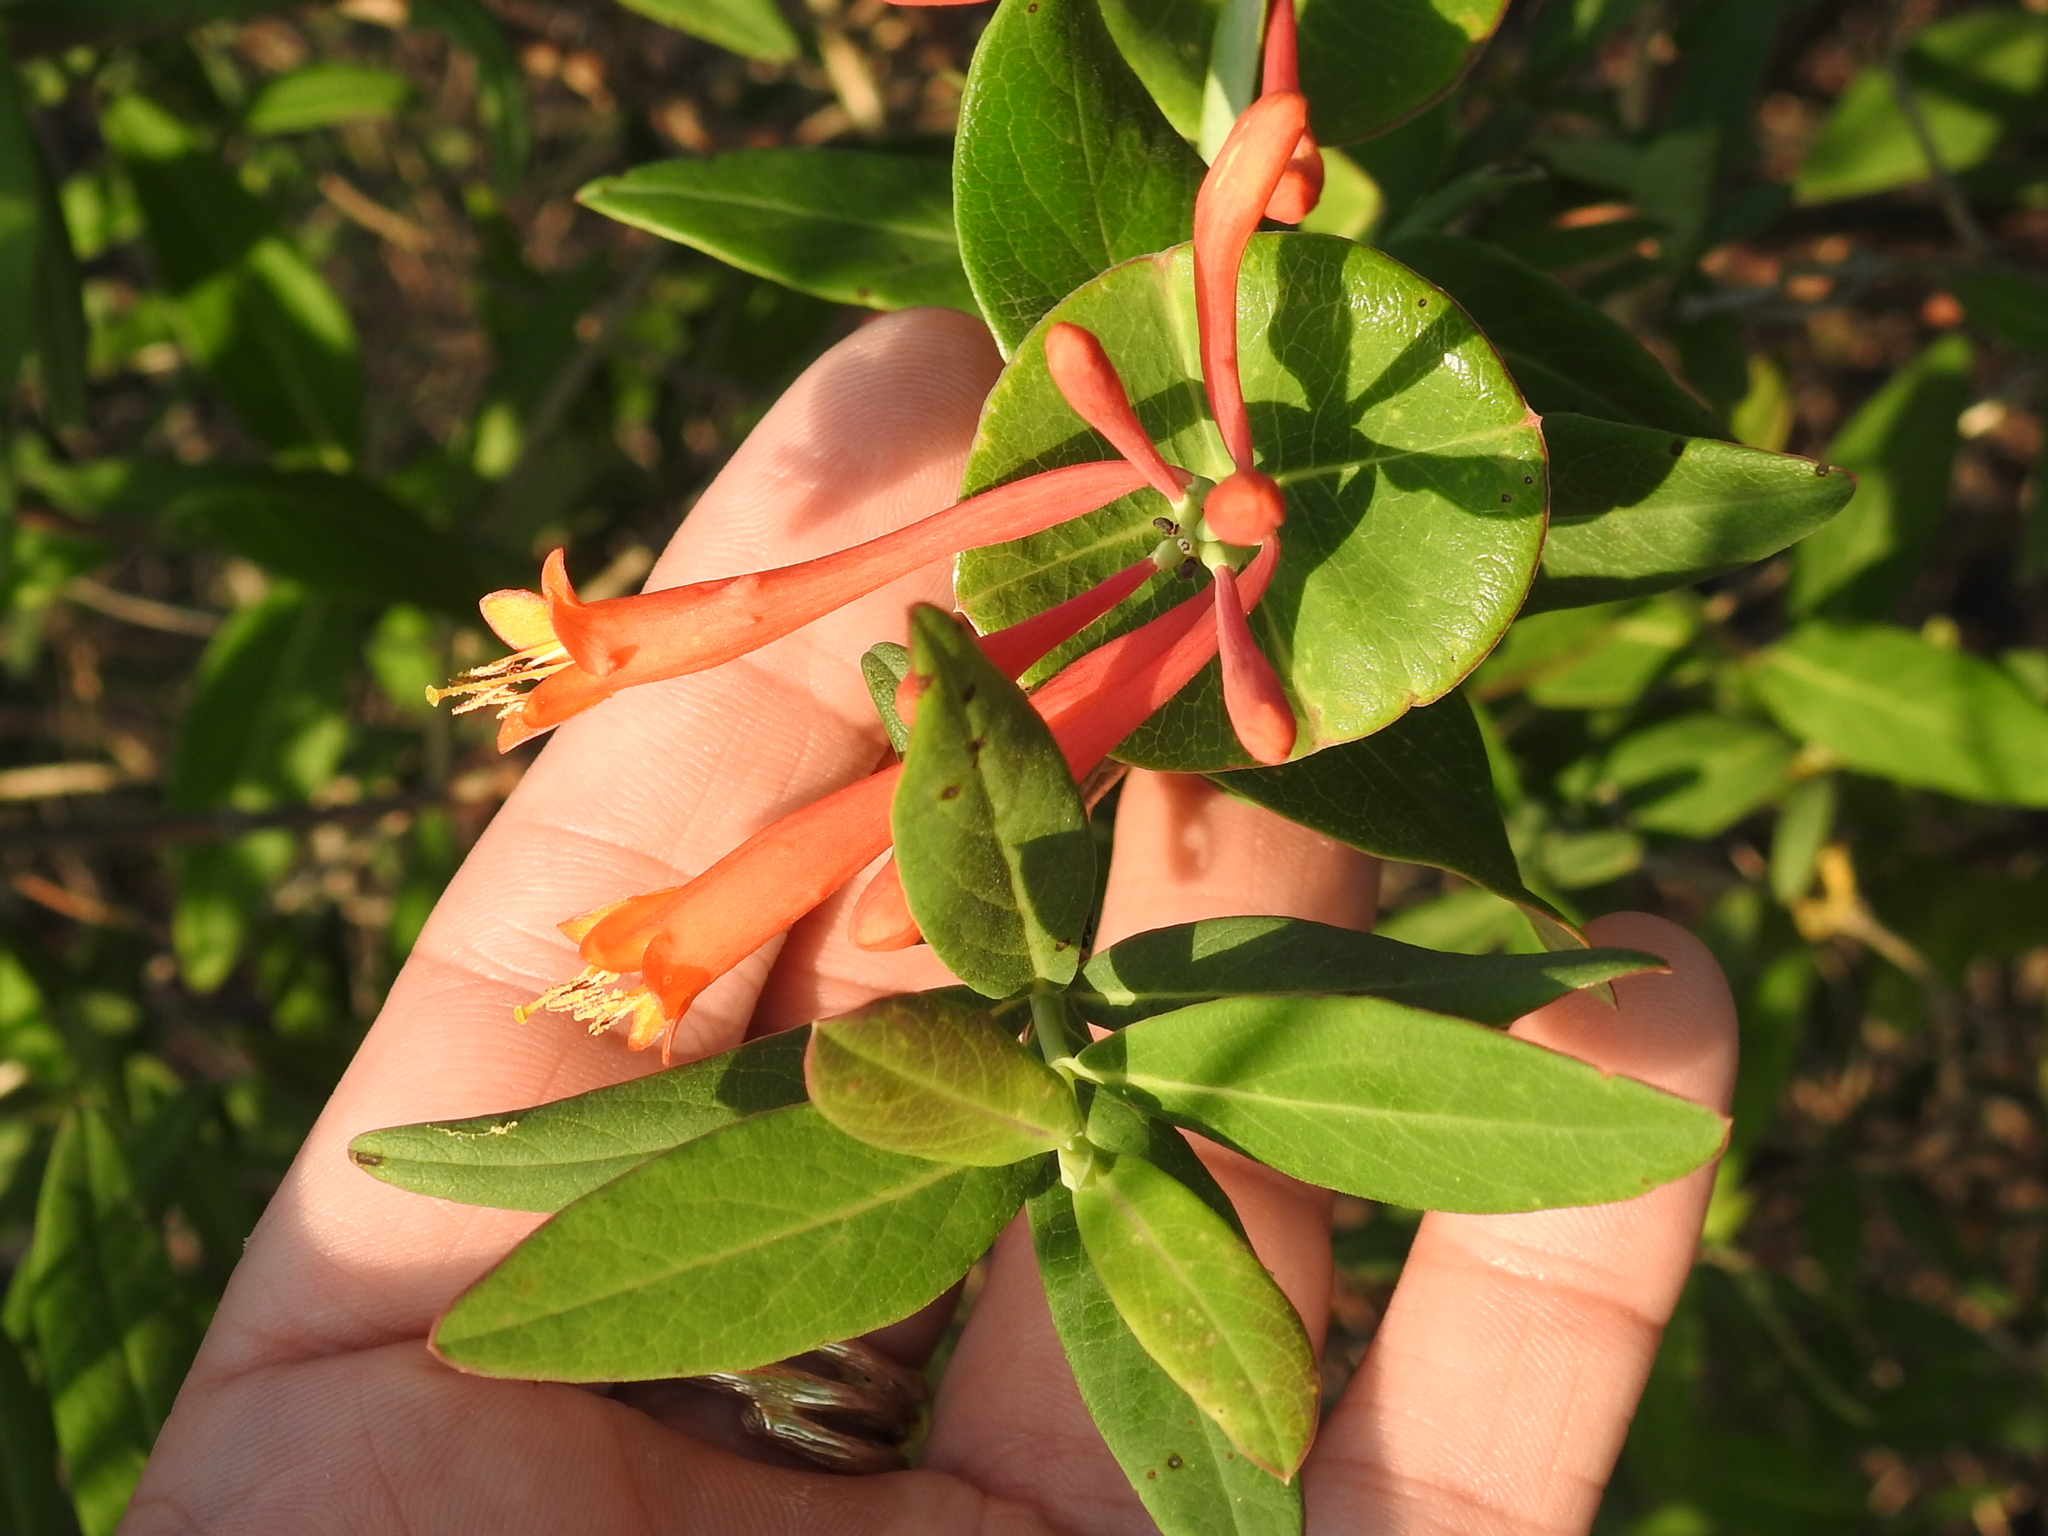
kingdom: Plantae
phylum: Tracheophyta
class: Magnoliopsida
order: Dipsacales
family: Caprifoliaceae
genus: Lonicera
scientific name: Lonicera sempervirens
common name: Coral honeysuckle
